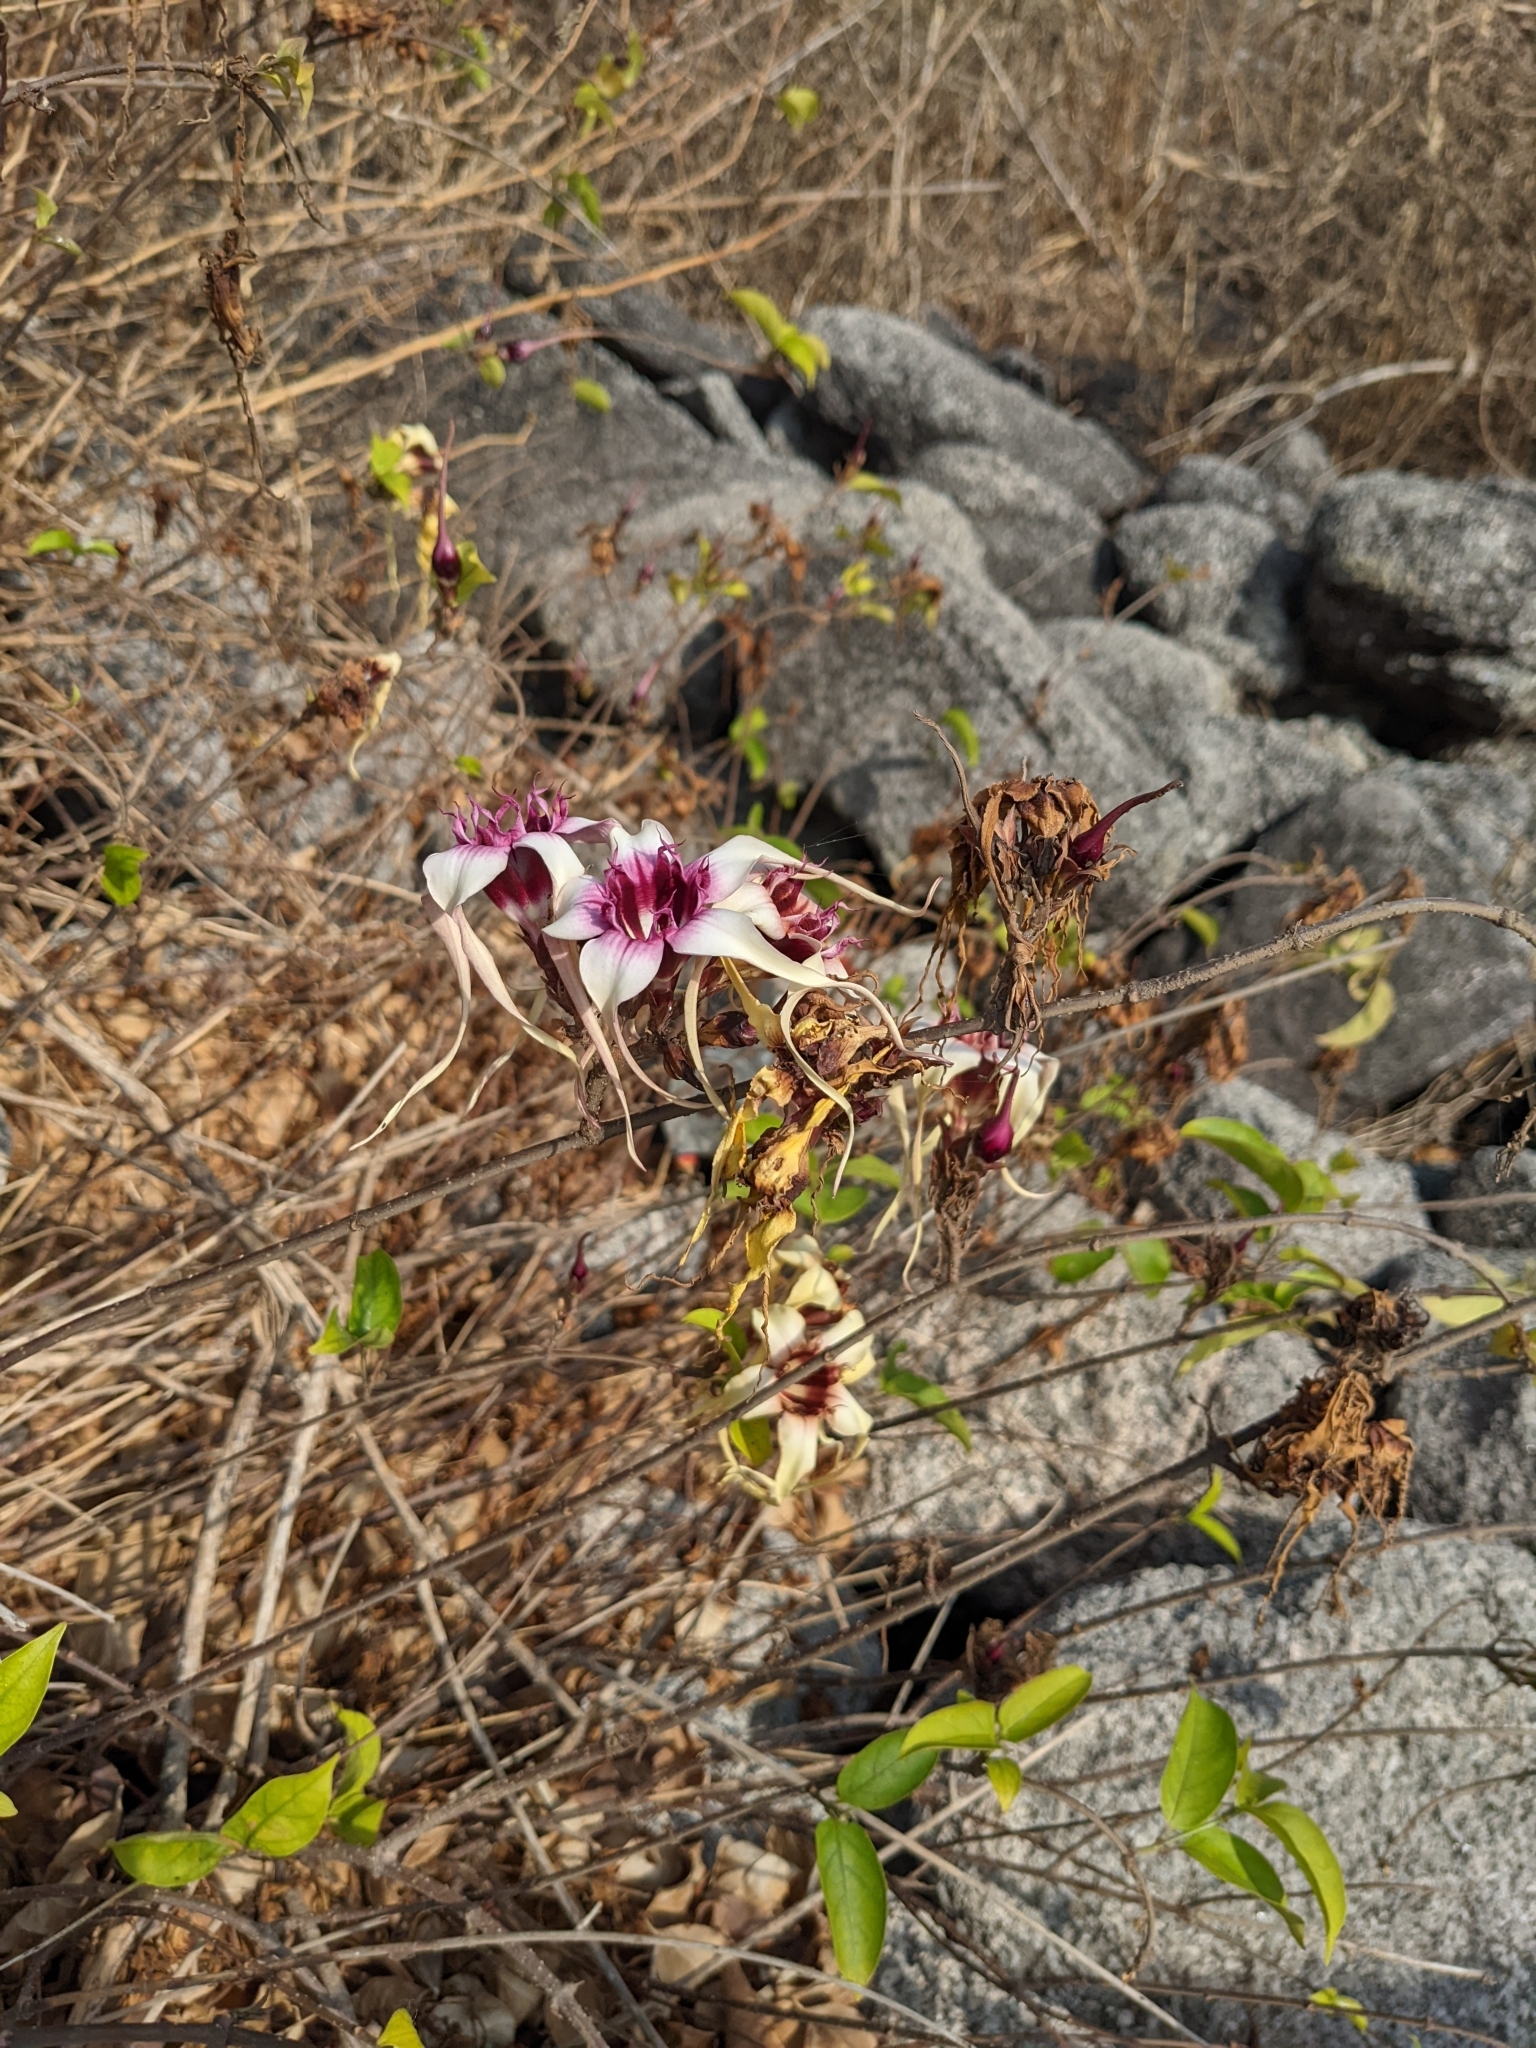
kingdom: Plantae
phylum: Tracheophyta
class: Magnoliopsida
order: Gentianales
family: Apocynaceae
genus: Strophanthus
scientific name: Strophanthus sarmentosus
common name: Poison arrowvine
